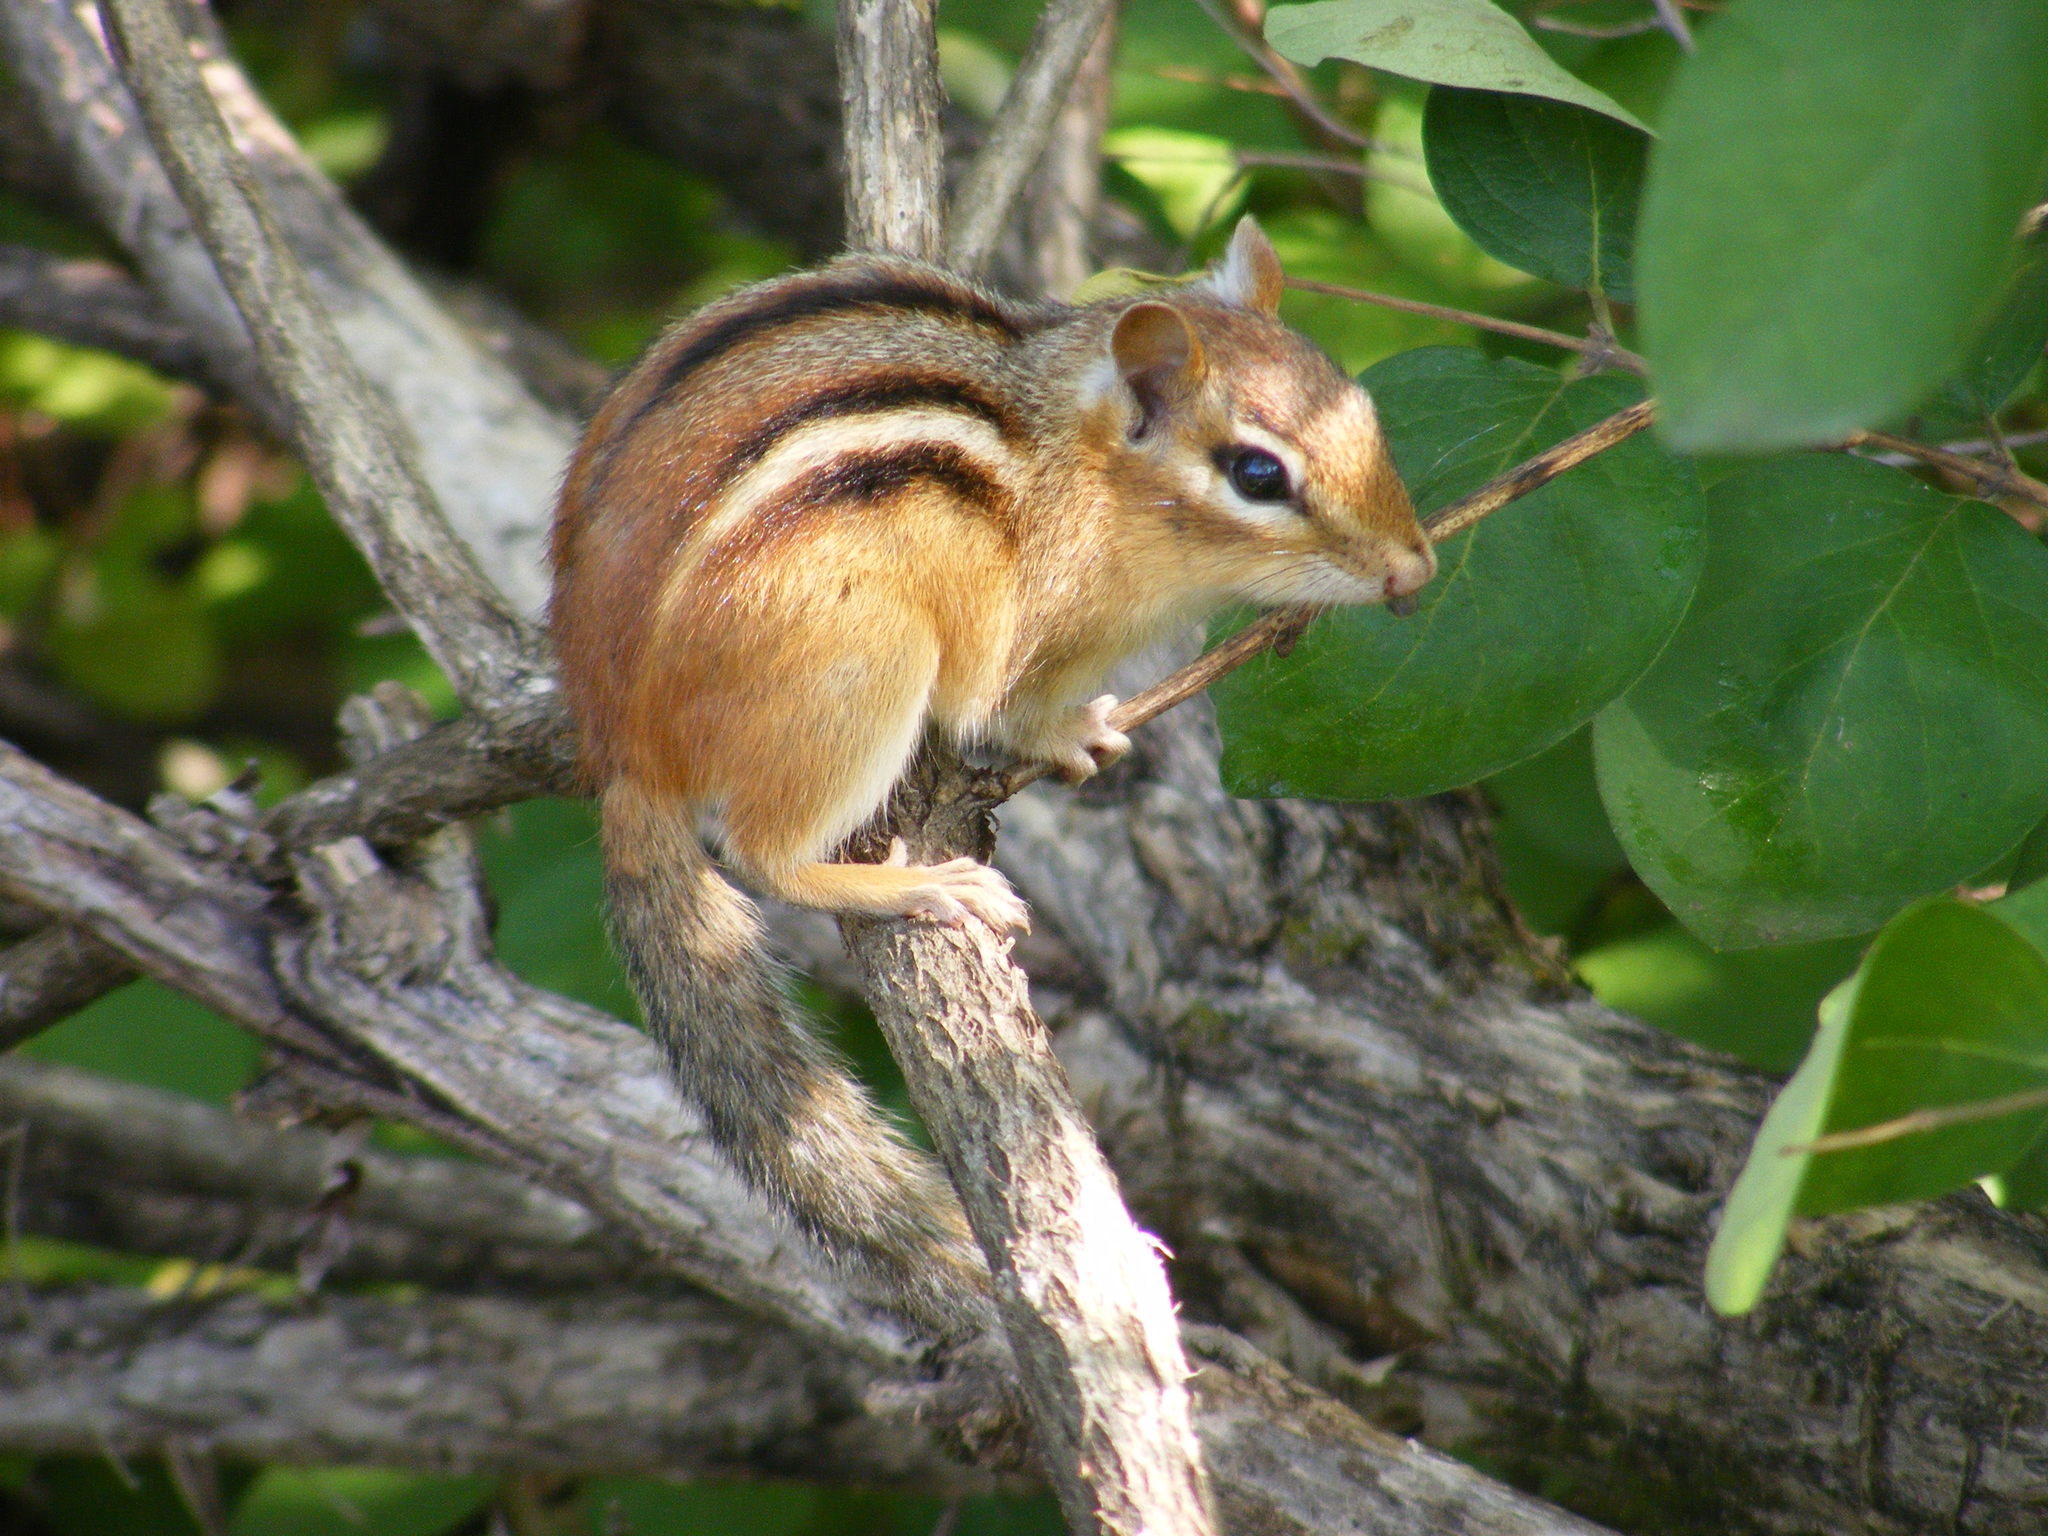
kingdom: Animalia
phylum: Chordata
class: Mammalia
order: Rodentia
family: Sciuridae
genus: Tamias
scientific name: Tamias striatus
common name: Eastern chipmunk
